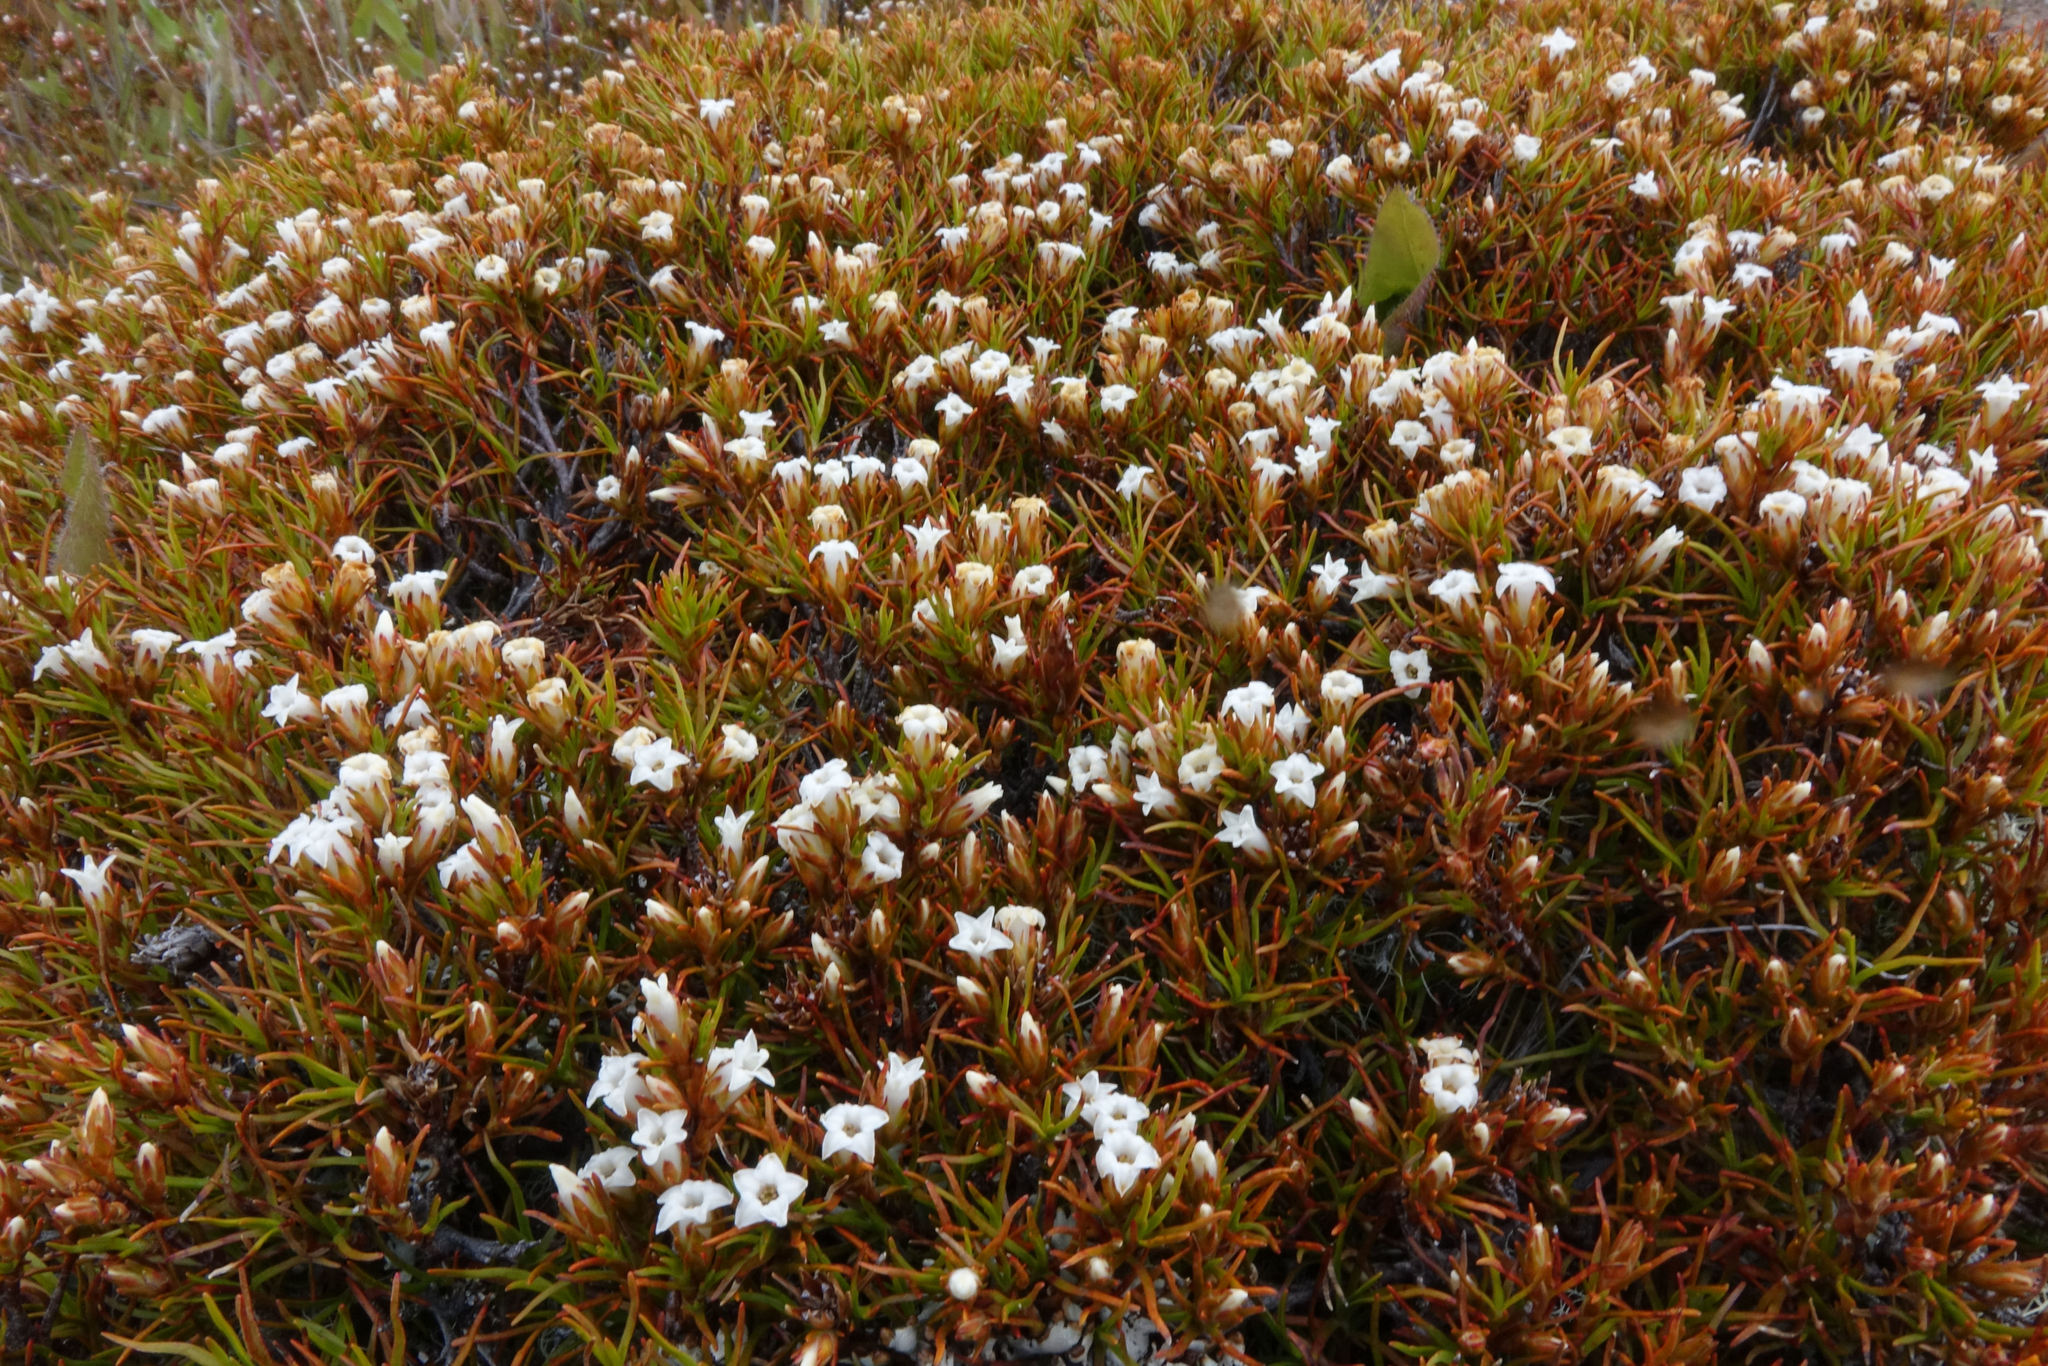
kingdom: Plantae
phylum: Tracheophyta
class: Magnoliopsida
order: Ericales
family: Ericaceae
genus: Dracophyllum
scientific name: Dracophyllum pronum
